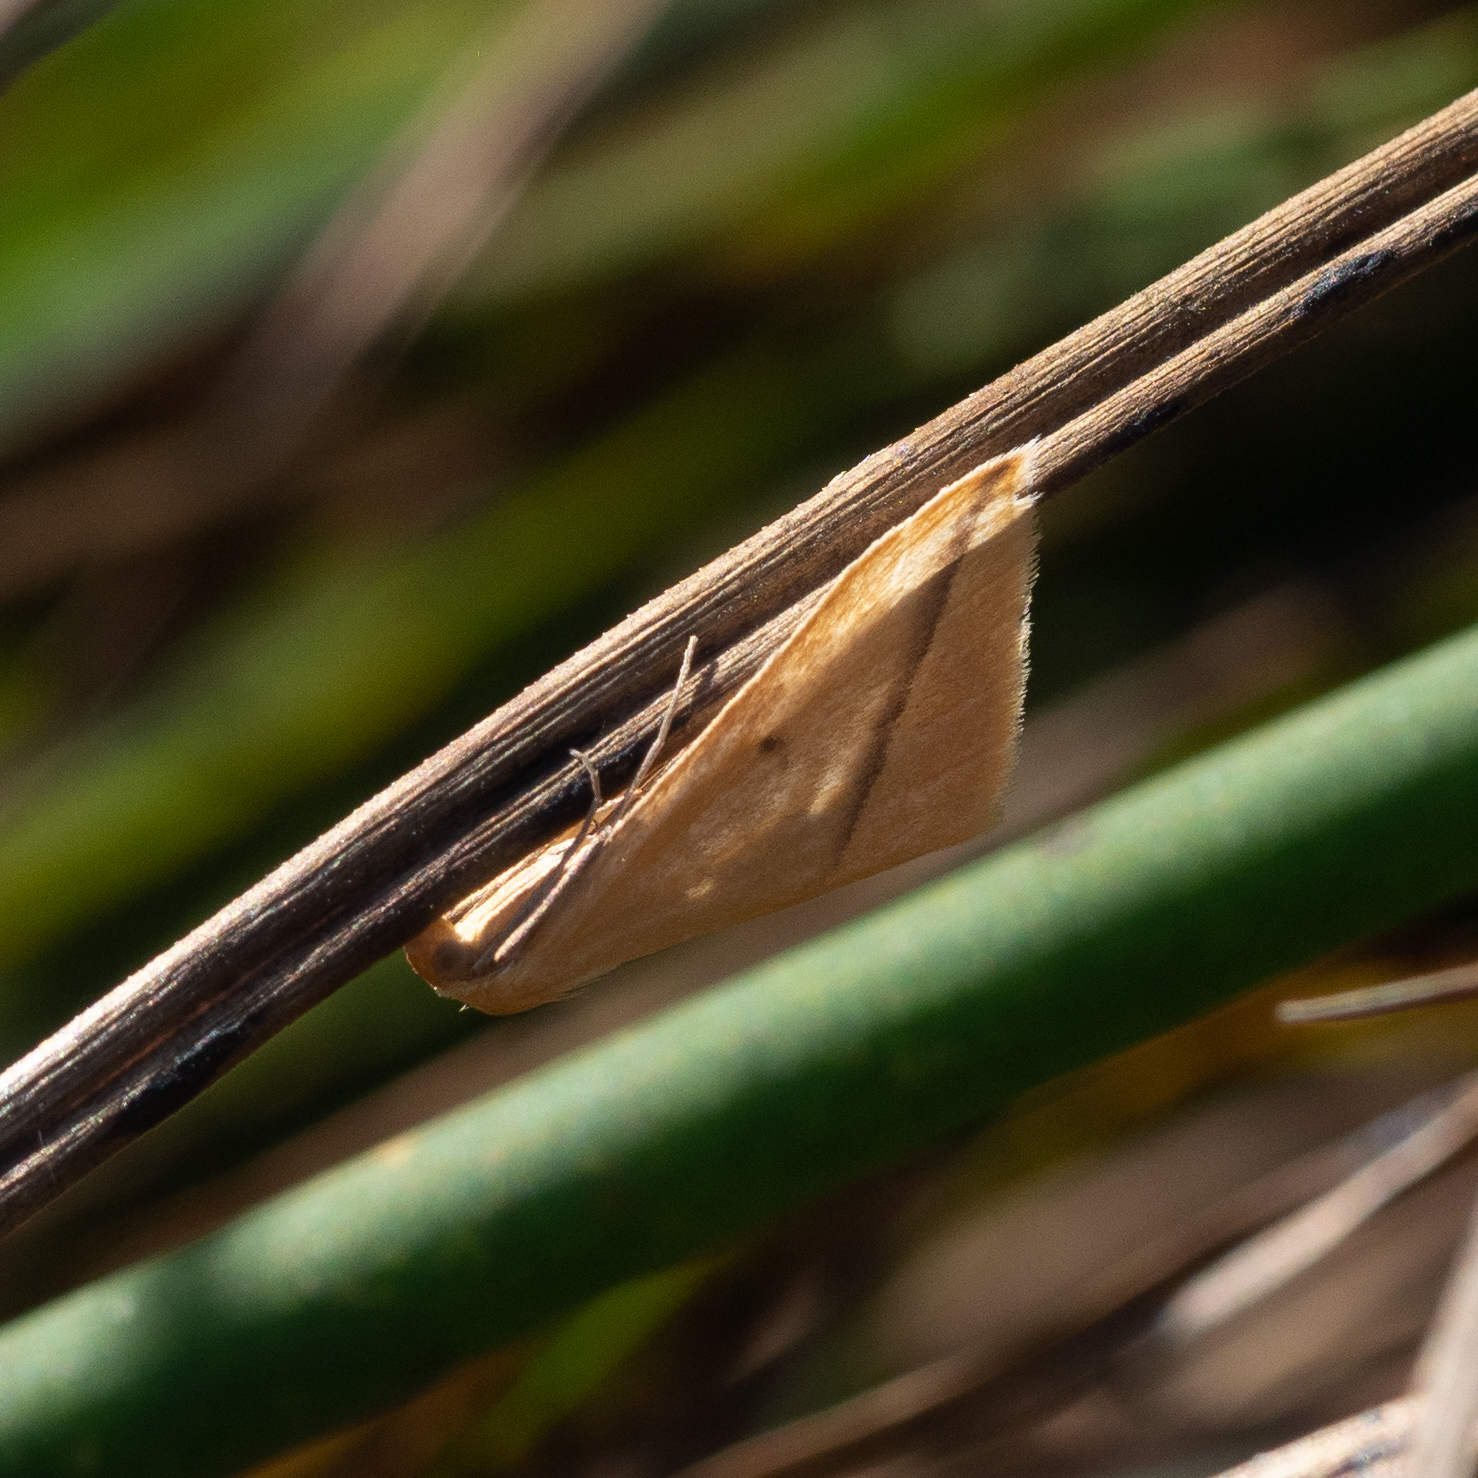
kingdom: Animalia
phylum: Arthropoda
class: Insecta
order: Lepidoptera
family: Geometridae
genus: Rhodometra
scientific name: Rhodometra sacraria
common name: Vestal
